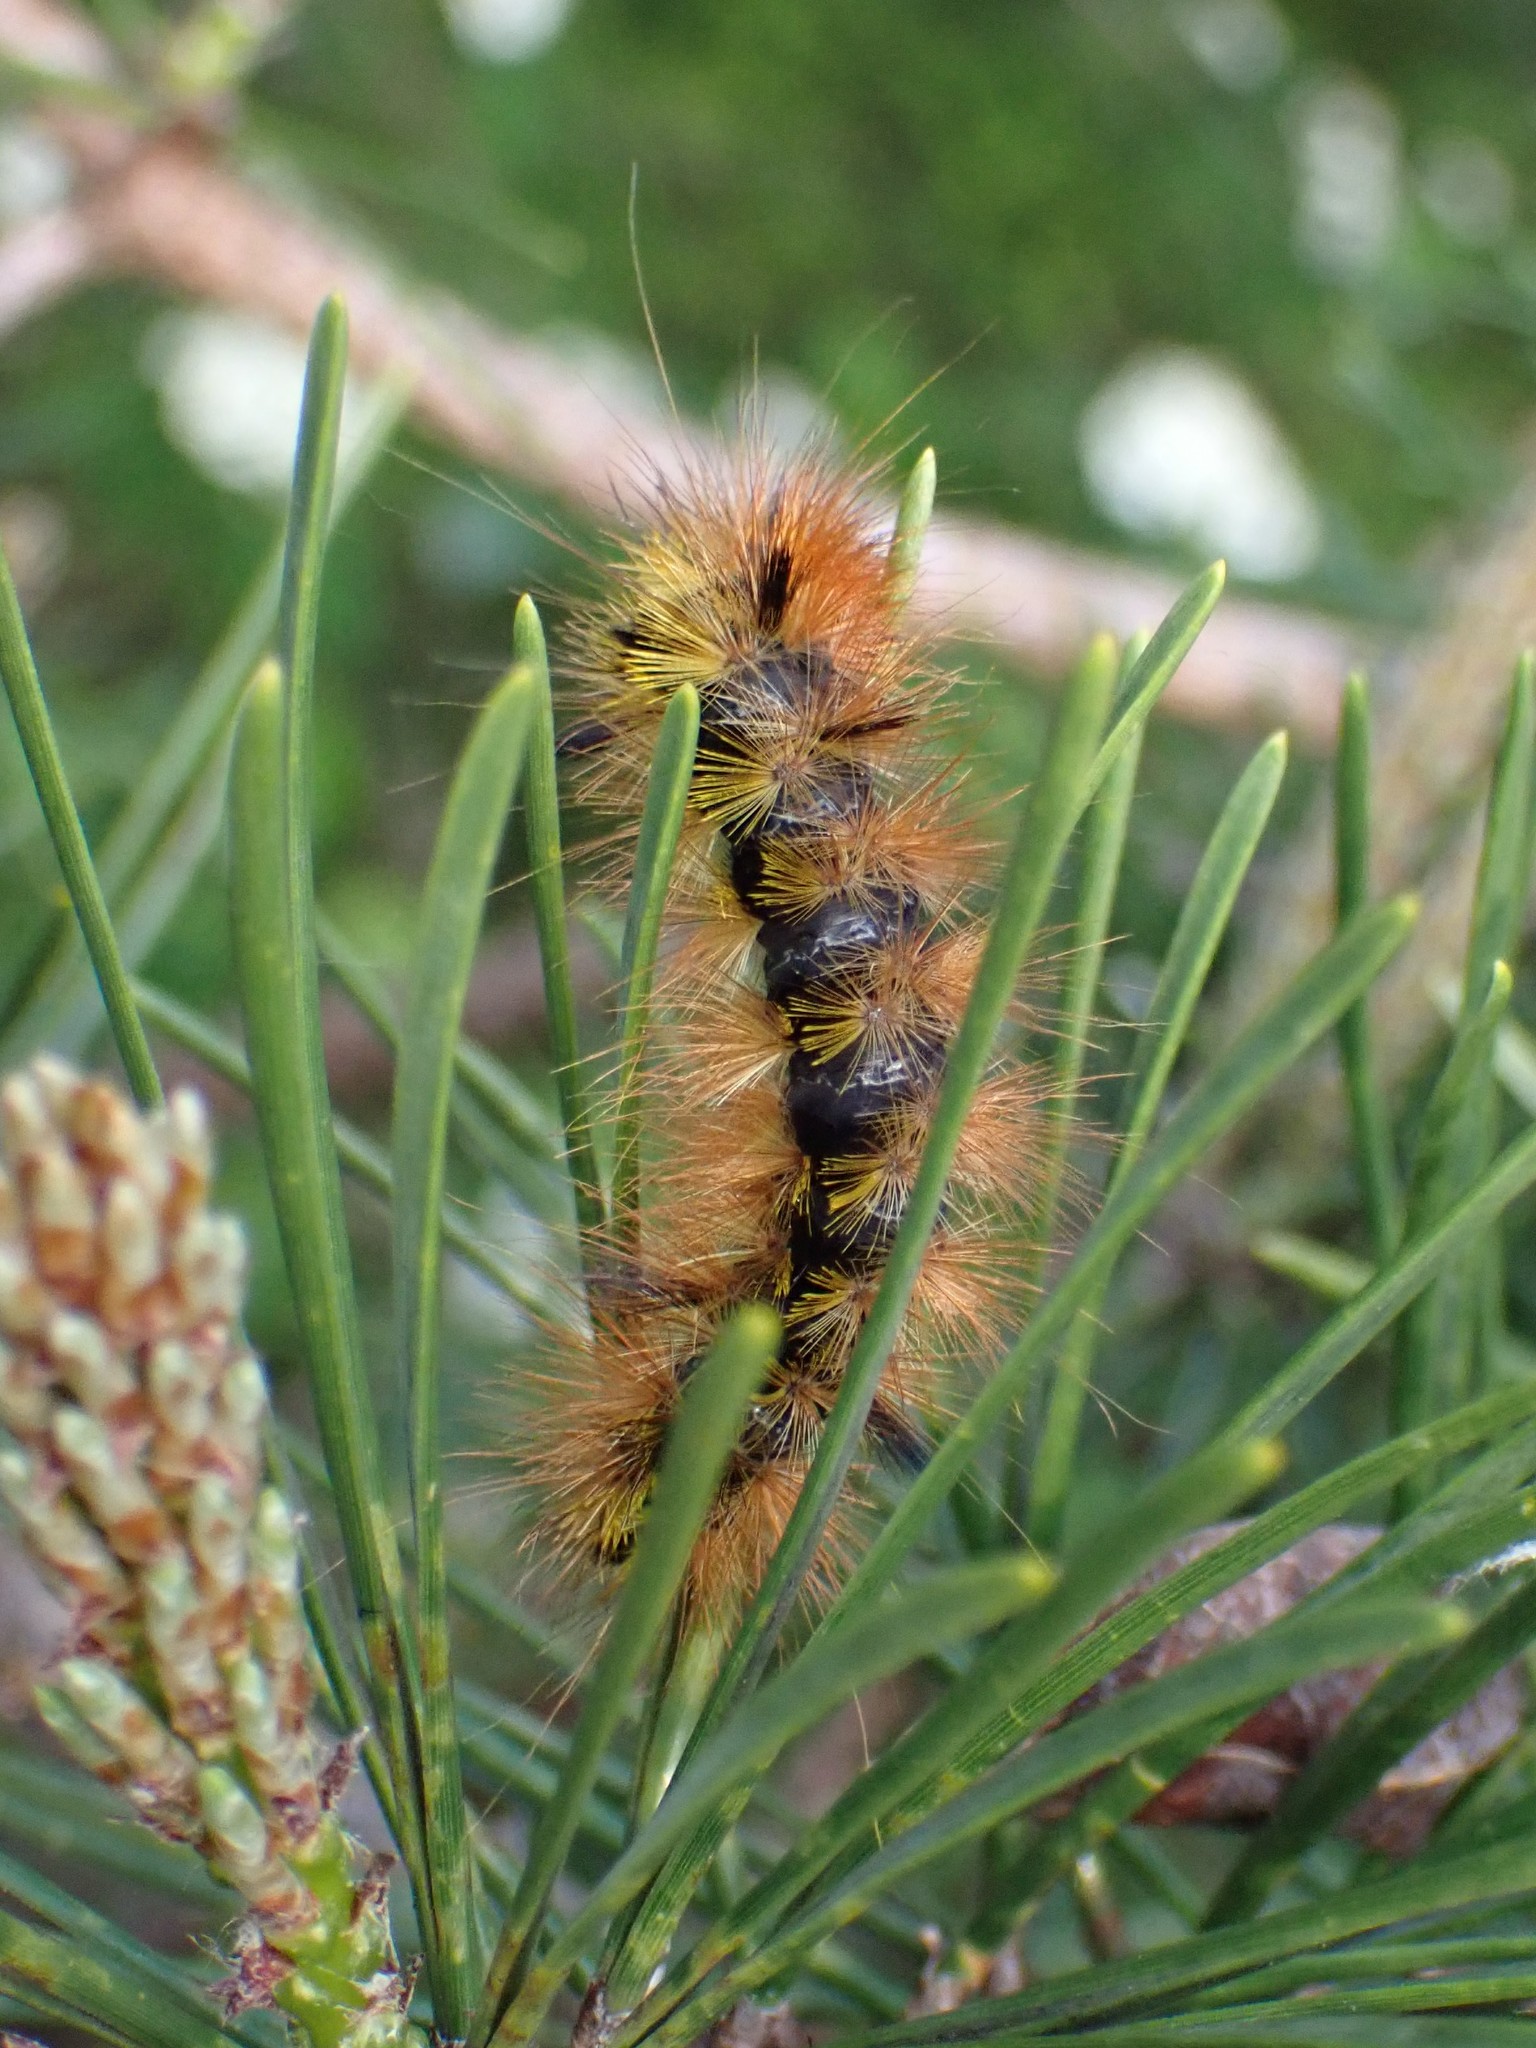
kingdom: Animalia
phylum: Arthropoda
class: Insecta
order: Lepidoptera
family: Erebidae
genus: Lophocampa
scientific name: Lophocampa argentata
